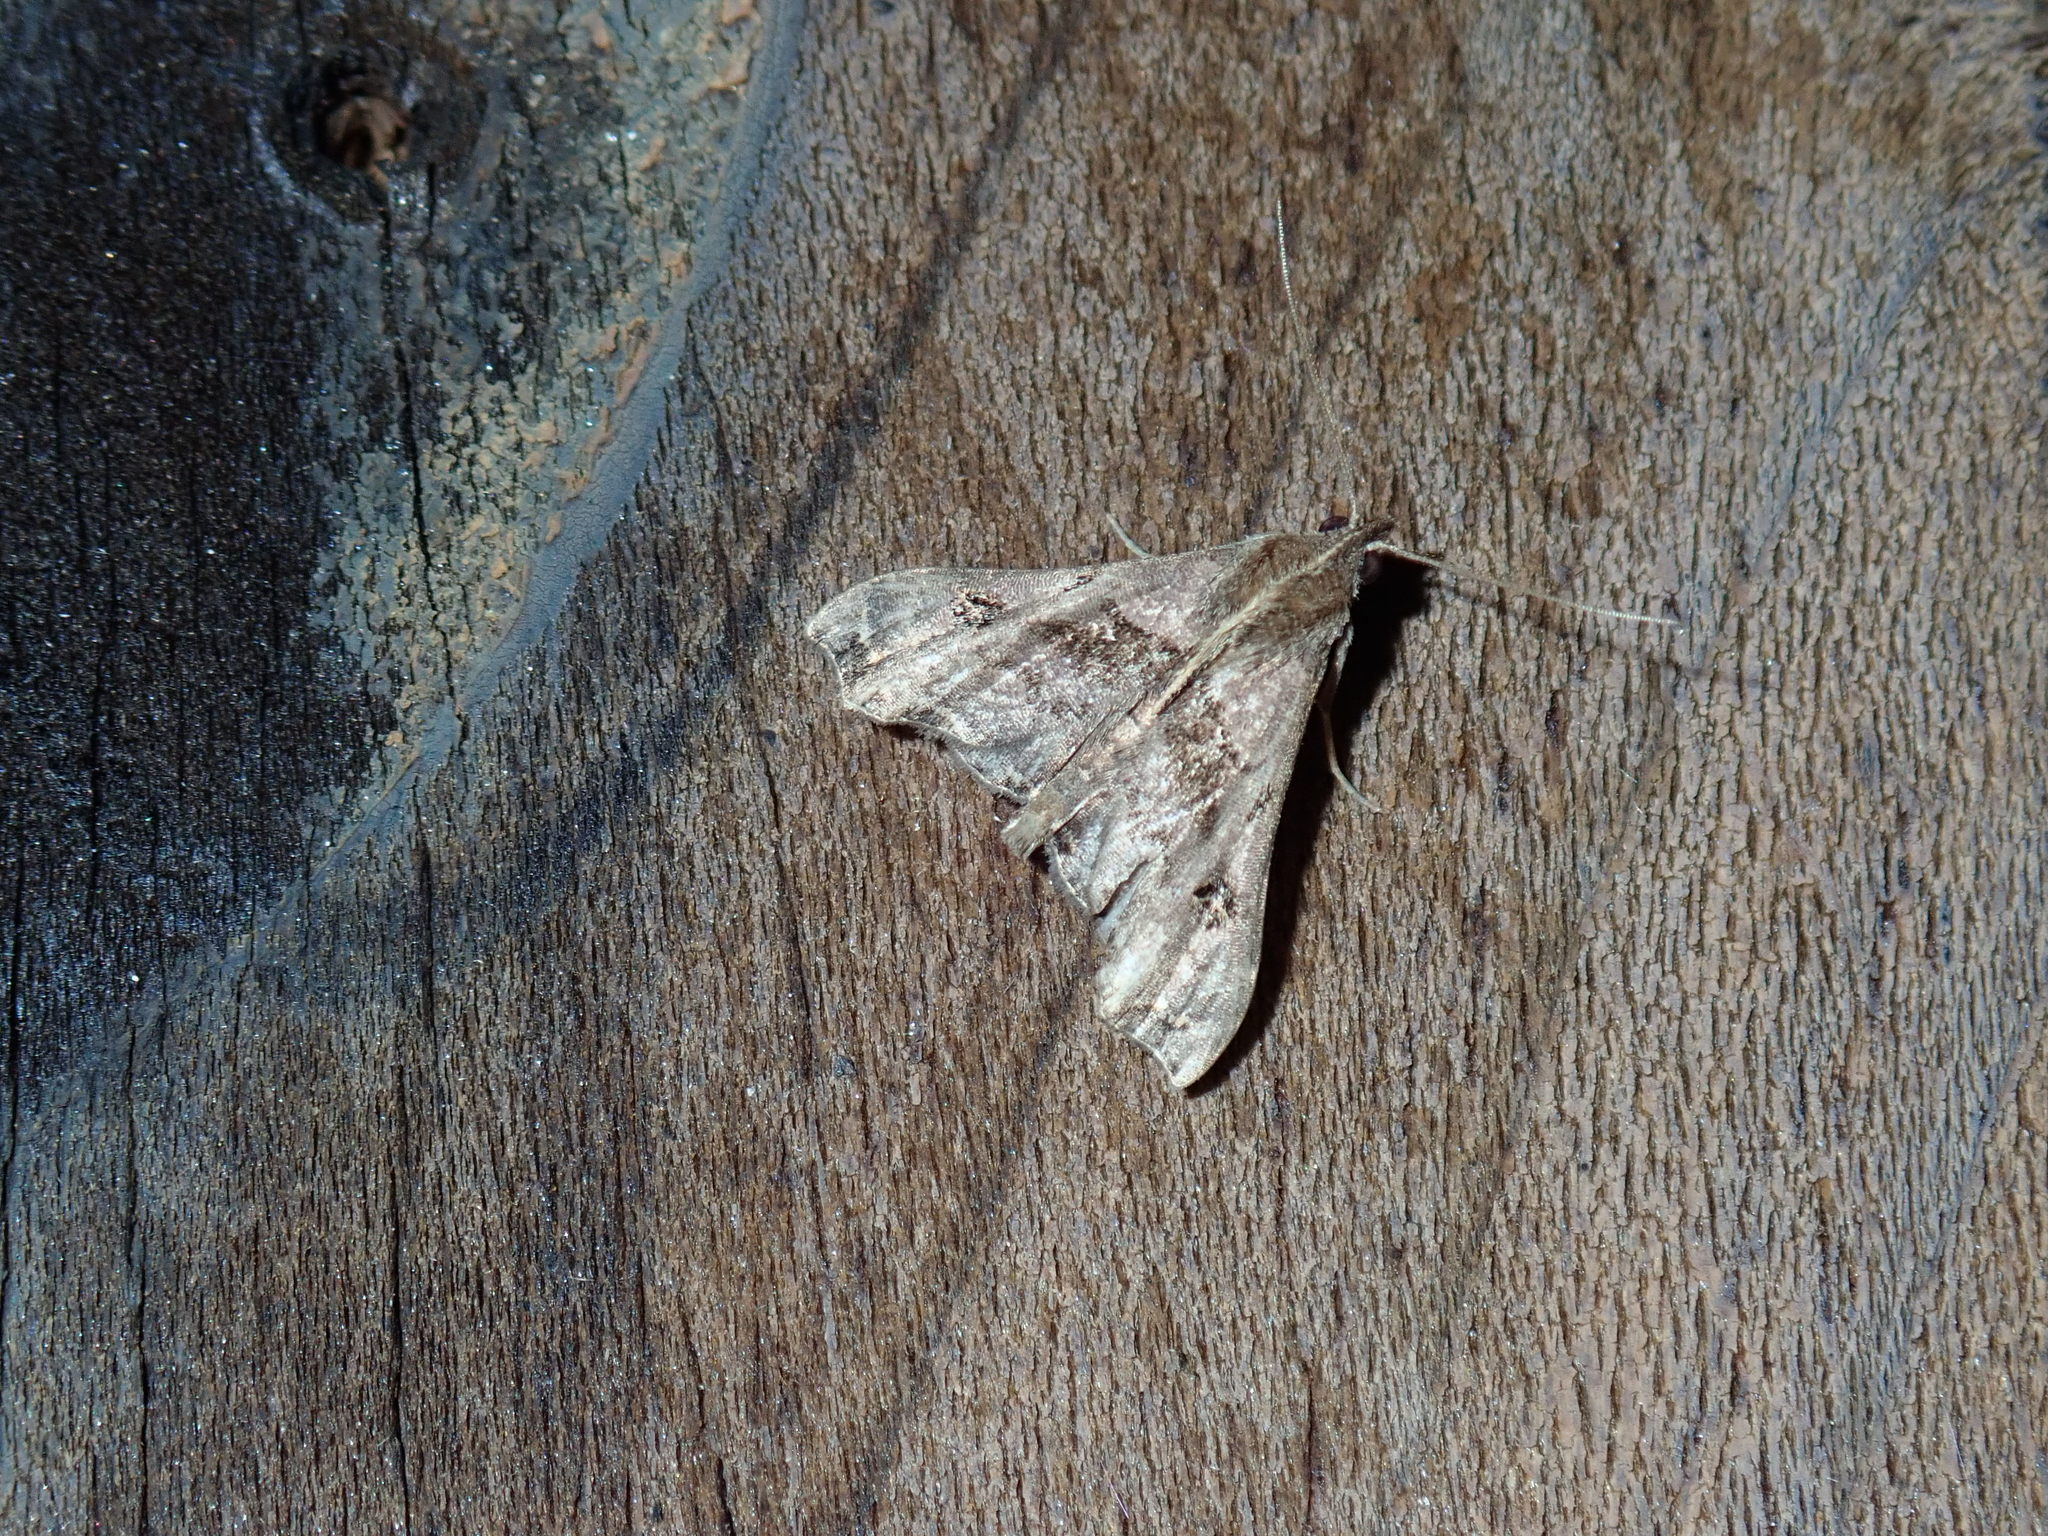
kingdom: Animalia
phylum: Arthropoda
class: Insecta
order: Lepidoptera
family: Erebidae
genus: Palthis
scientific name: Palthis asopialis
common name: Faint-spotted palthis moth
